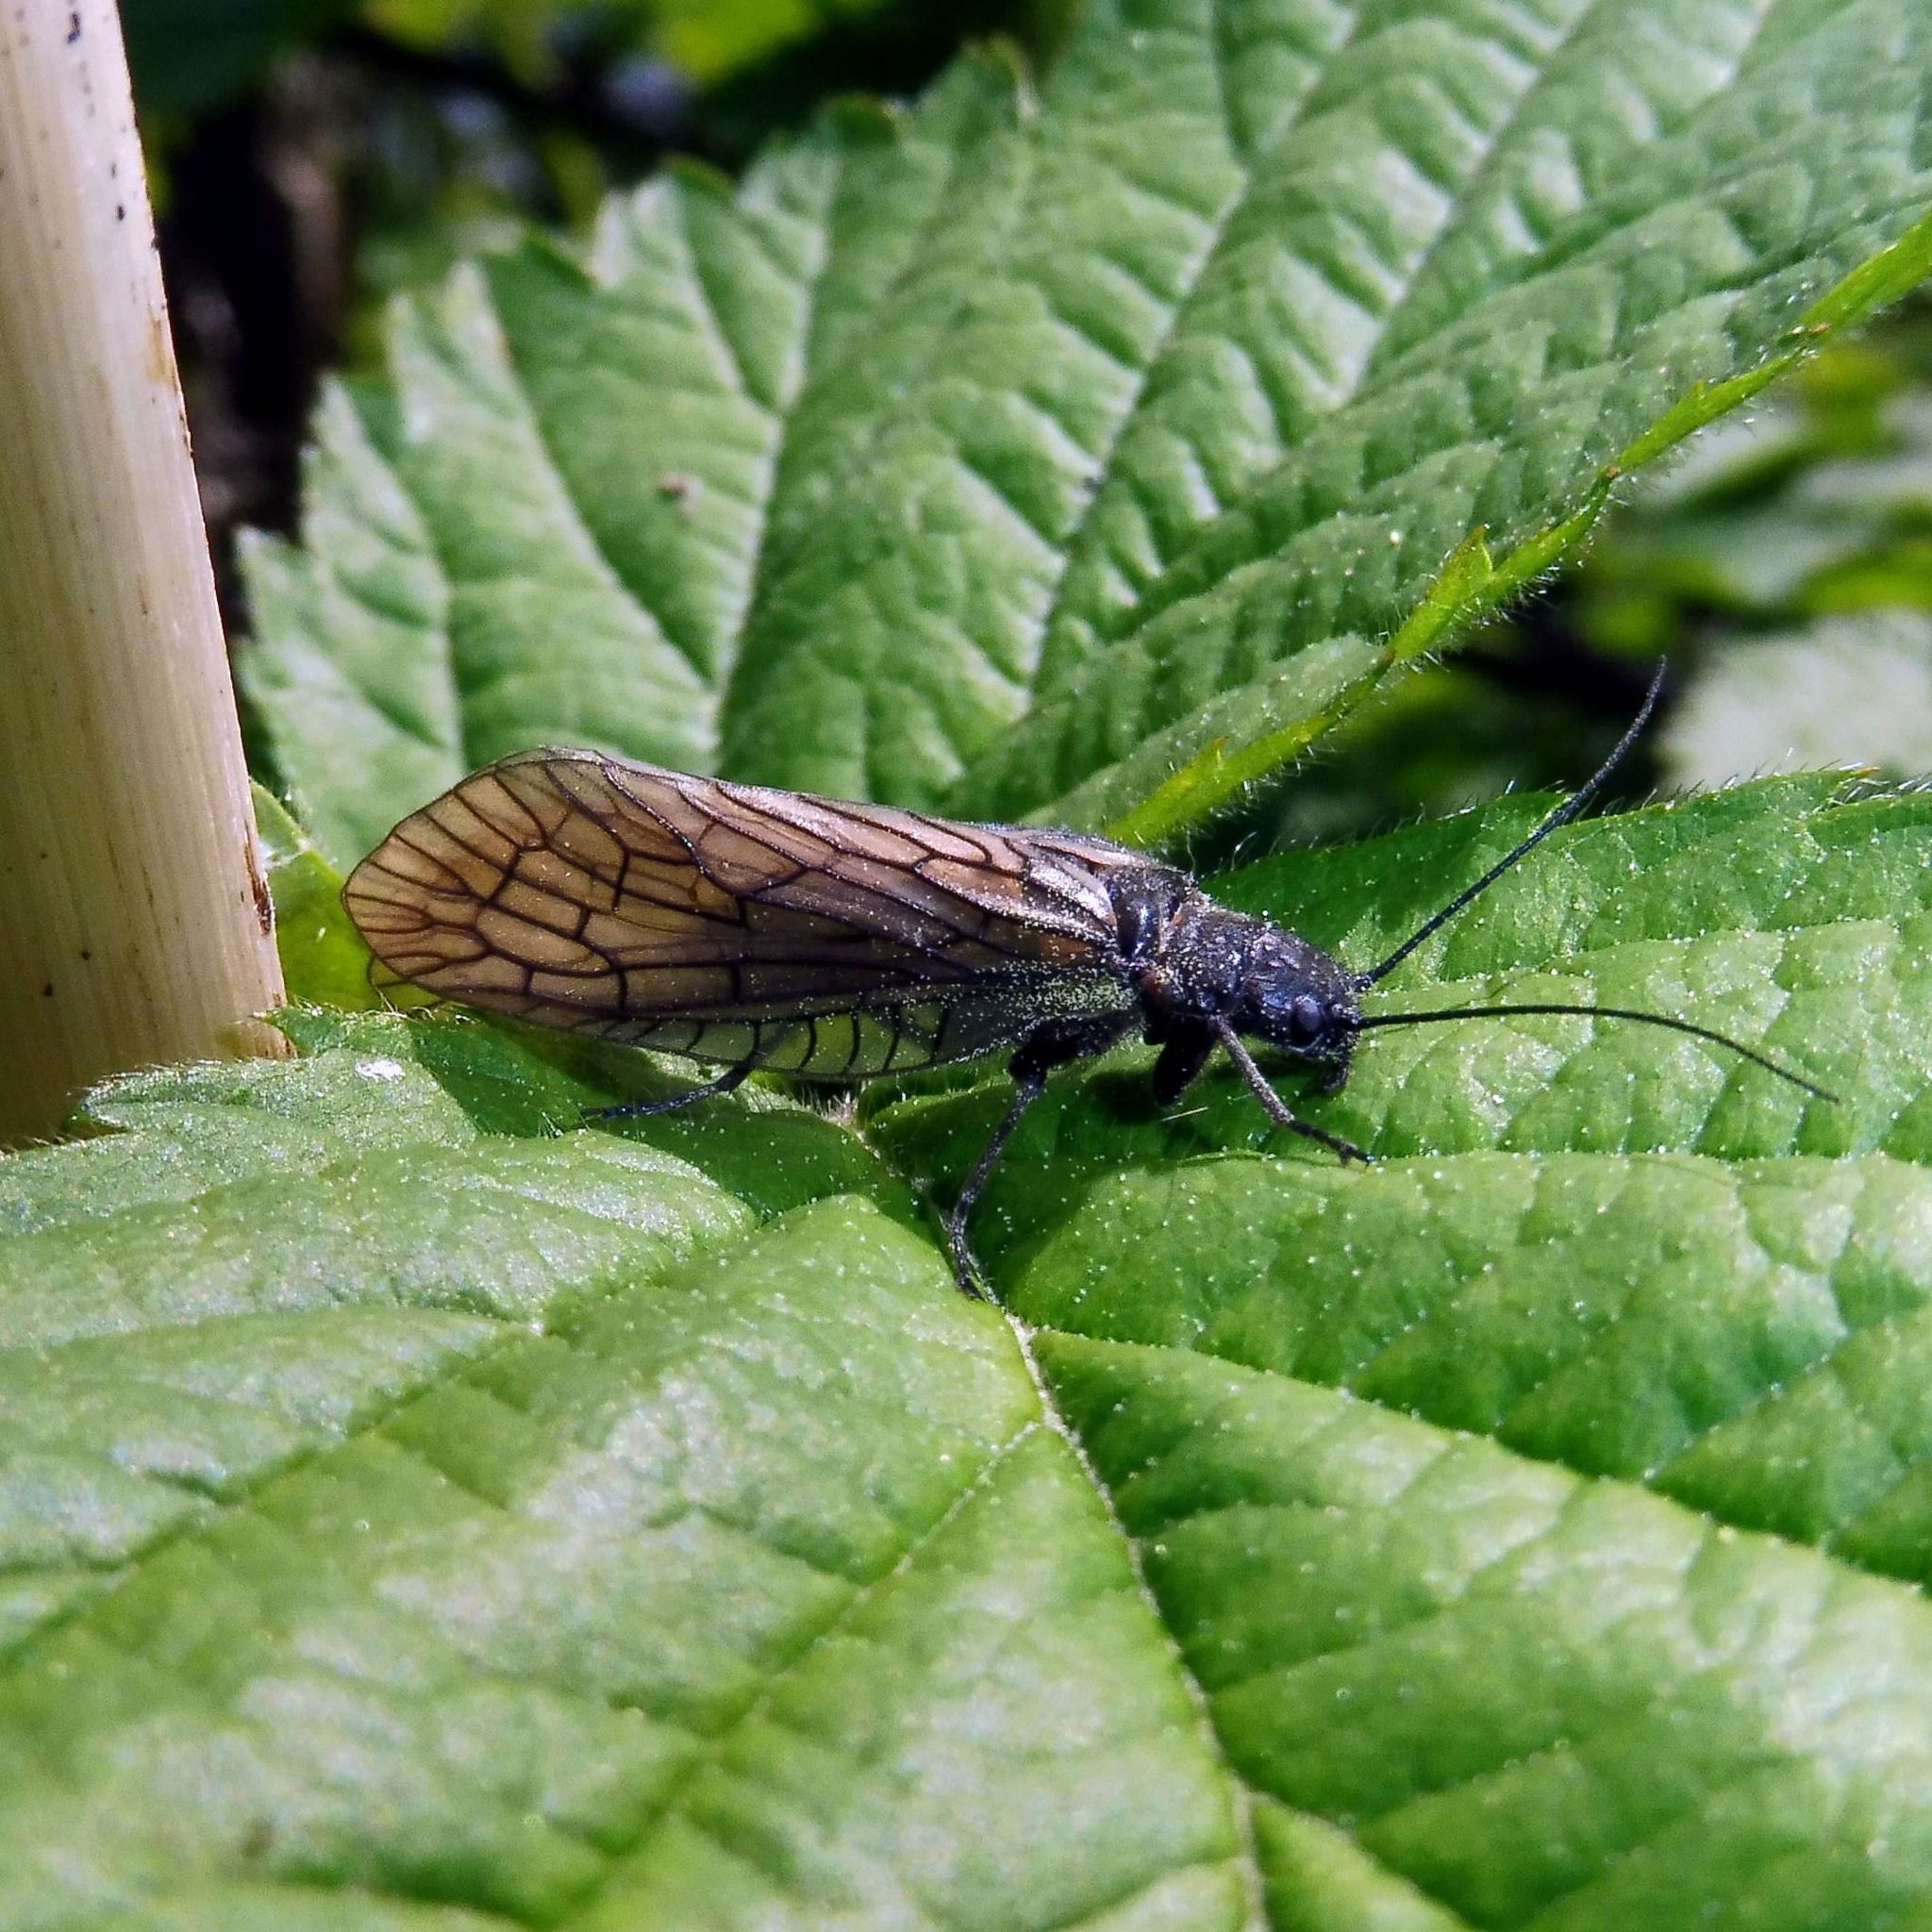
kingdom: Animalia
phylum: Arthropoda
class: Insecta
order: Megaloptera
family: Sialidae
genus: Sialis
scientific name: Sialis
